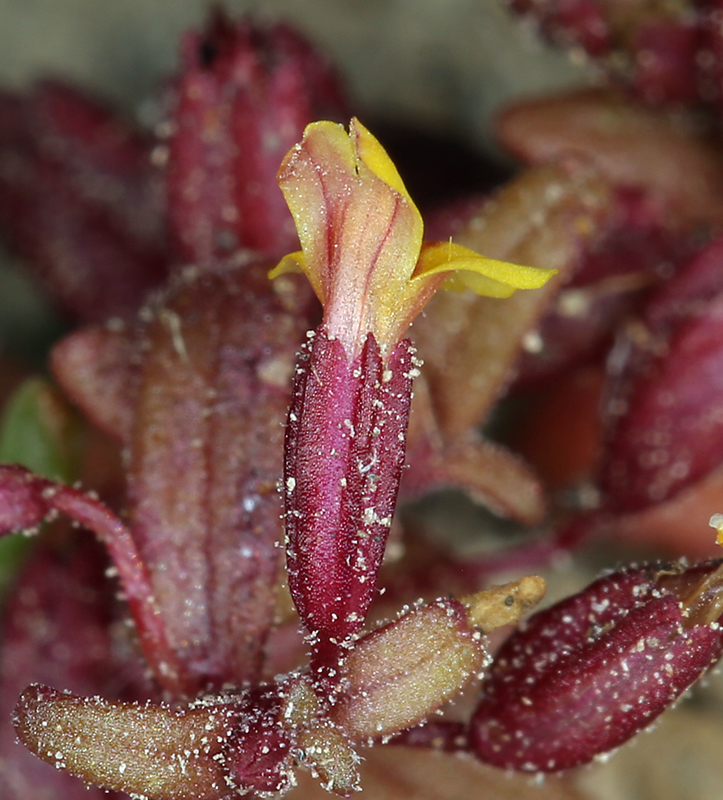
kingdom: Plantae
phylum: Tracheophyta
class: Magnoliopsida
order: Lamiales
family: Phrymaceae
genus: Erythranthe
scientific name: Erythranthe suksdorfii
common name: Suksdorf's monkeyflower
